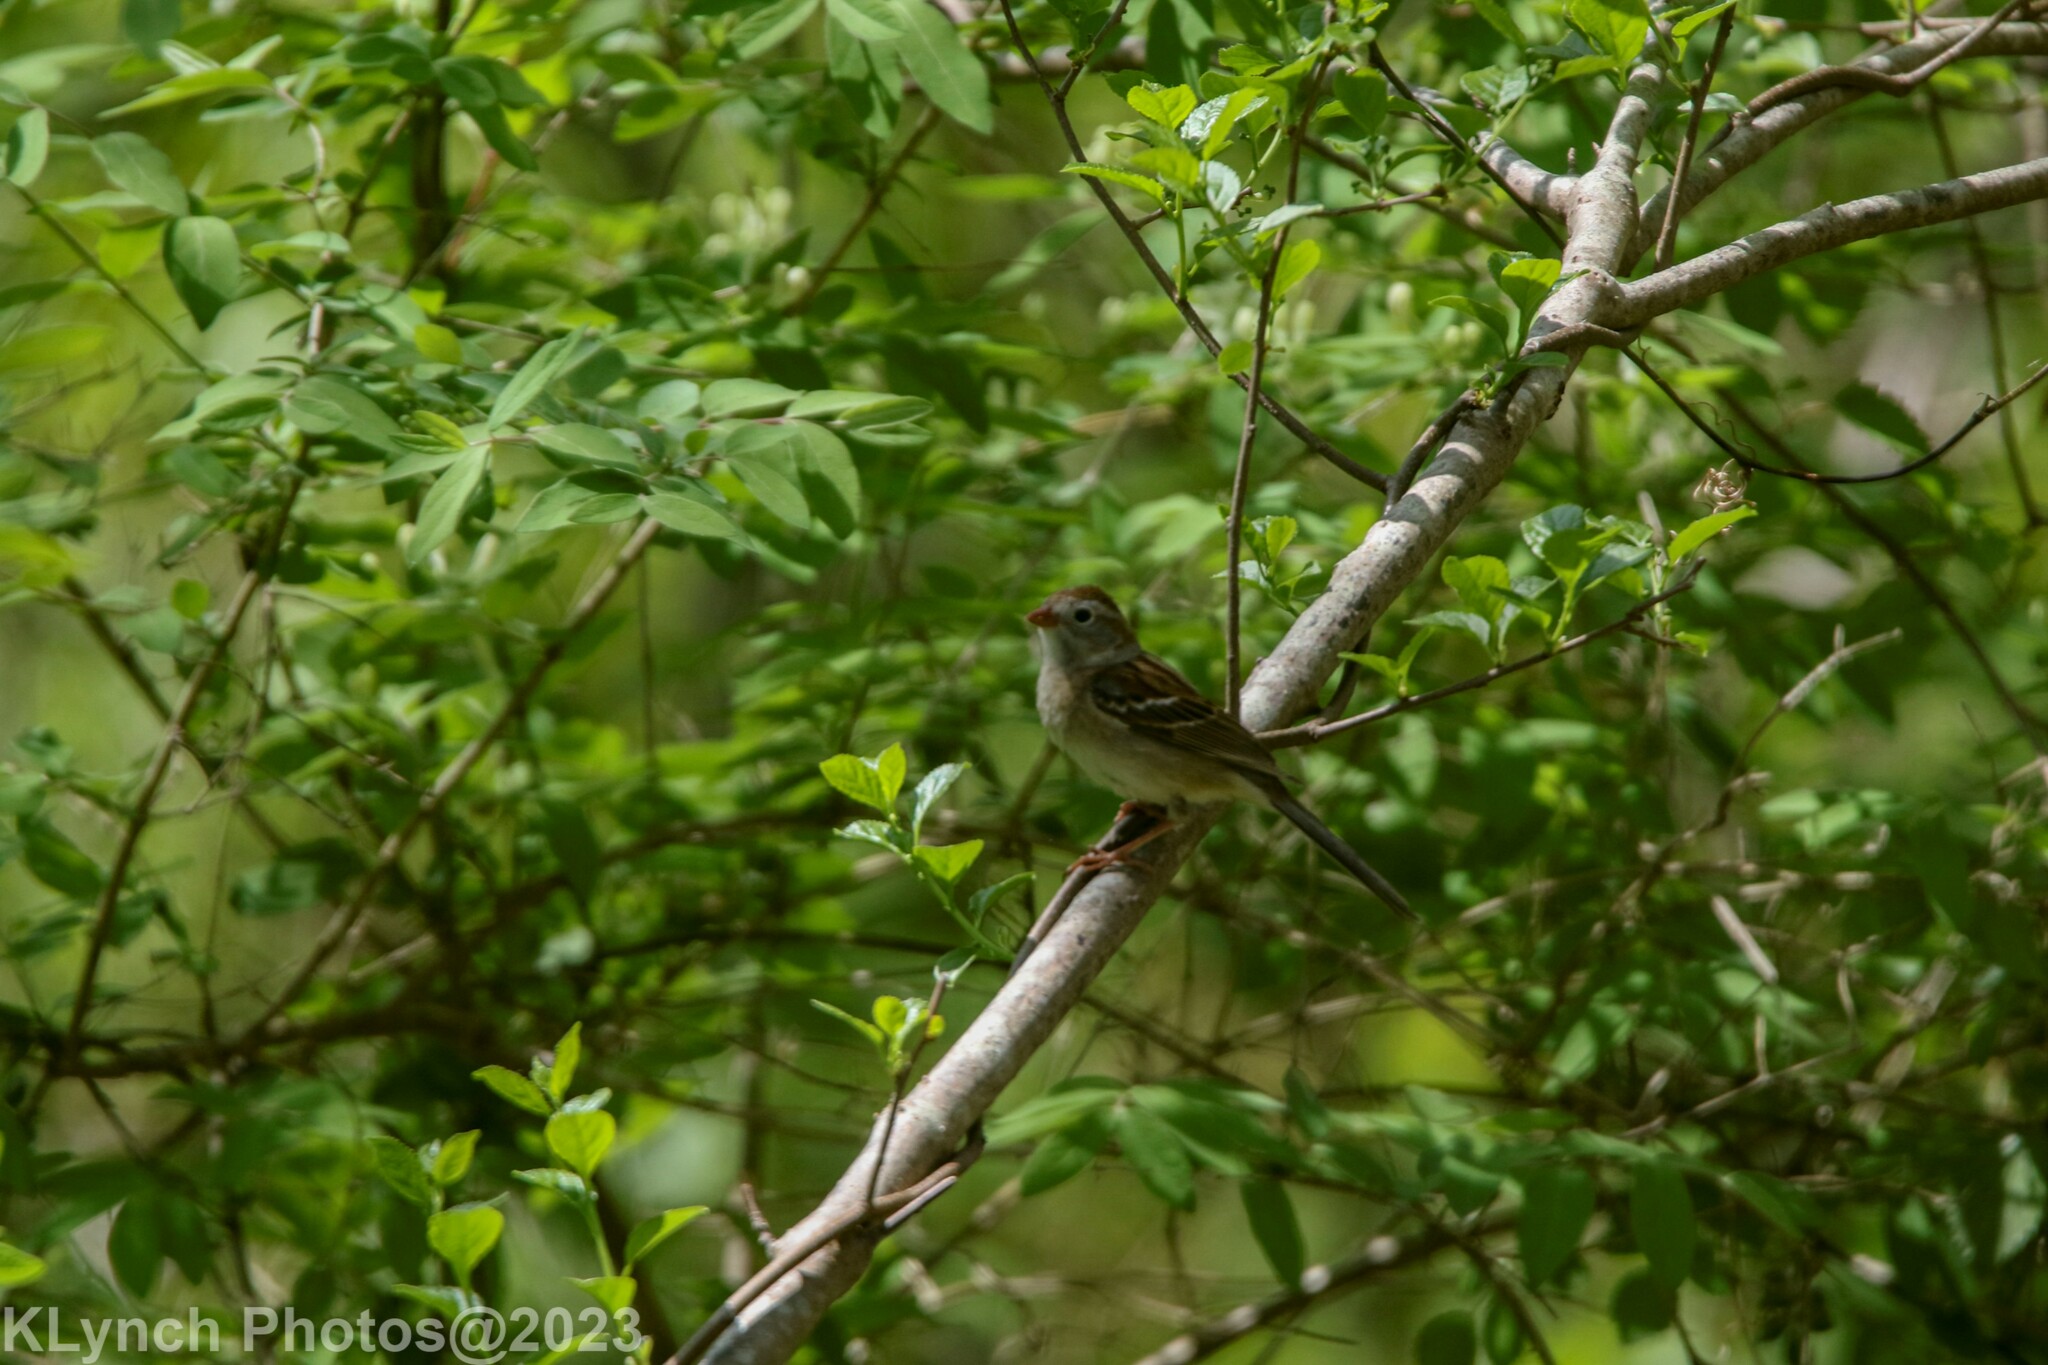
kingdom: Animalia
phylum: Chordata
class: Aves
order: Passeriformes
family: Passerellidae
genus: Spizella
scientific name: Spizella pusilla
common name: Field sparrow
